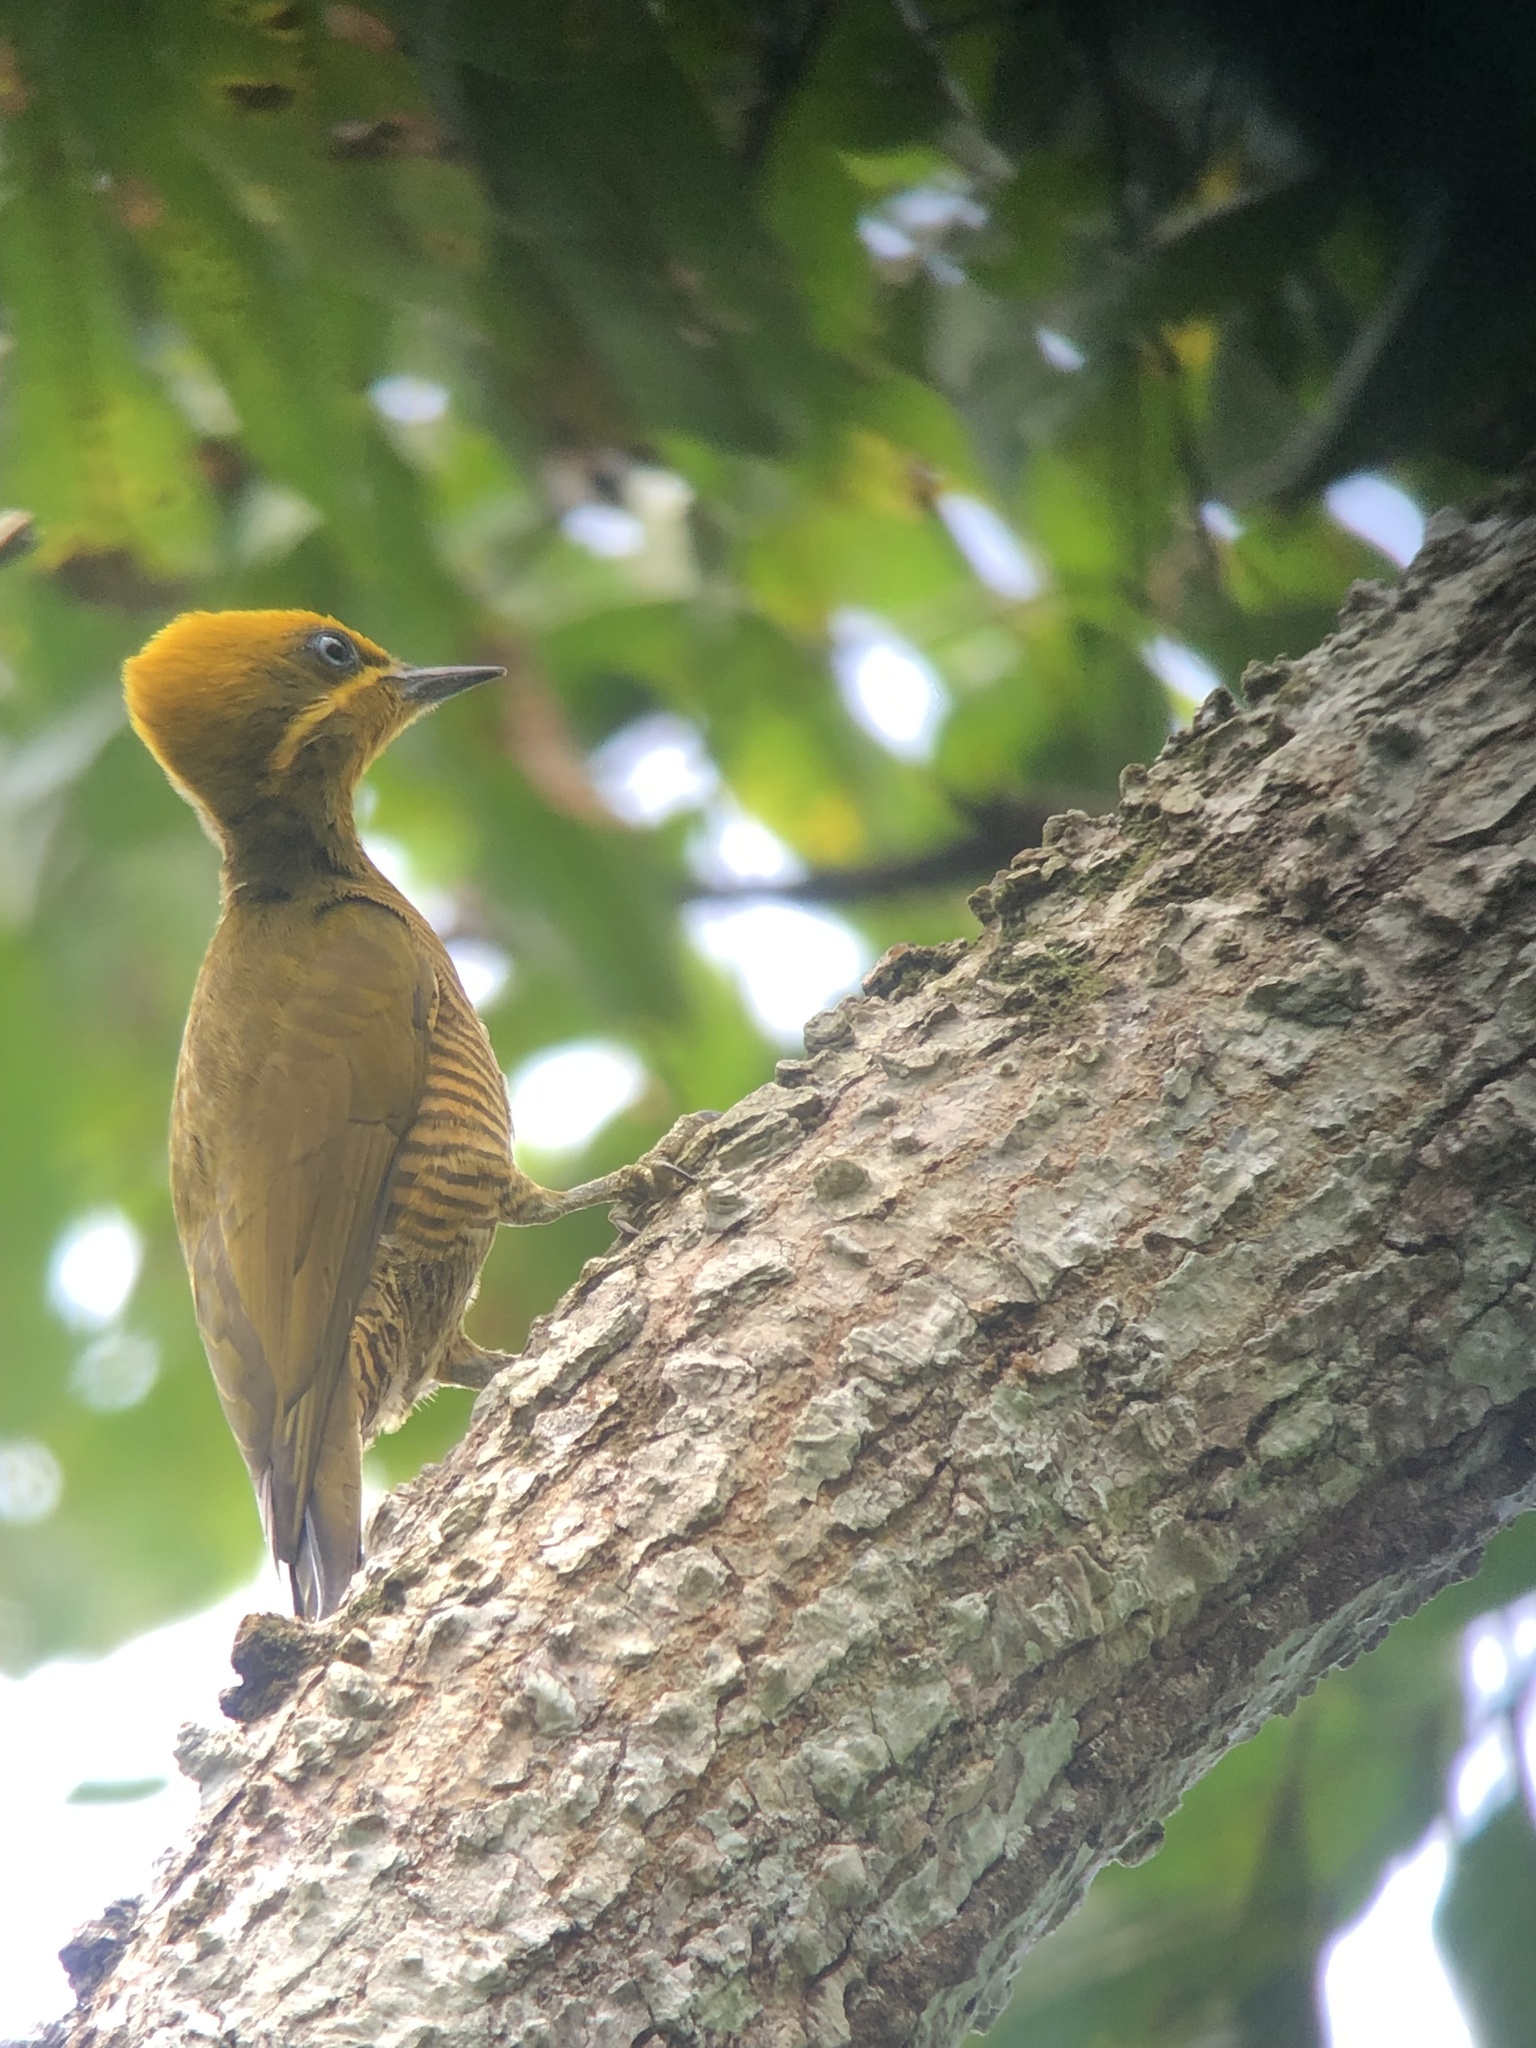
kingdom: Animalia
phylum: Chordata
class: Aves
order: Piciformes
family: Picidae
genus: Piculus
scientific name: Piculus chrysochloros
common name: Golden-green woodpecker
